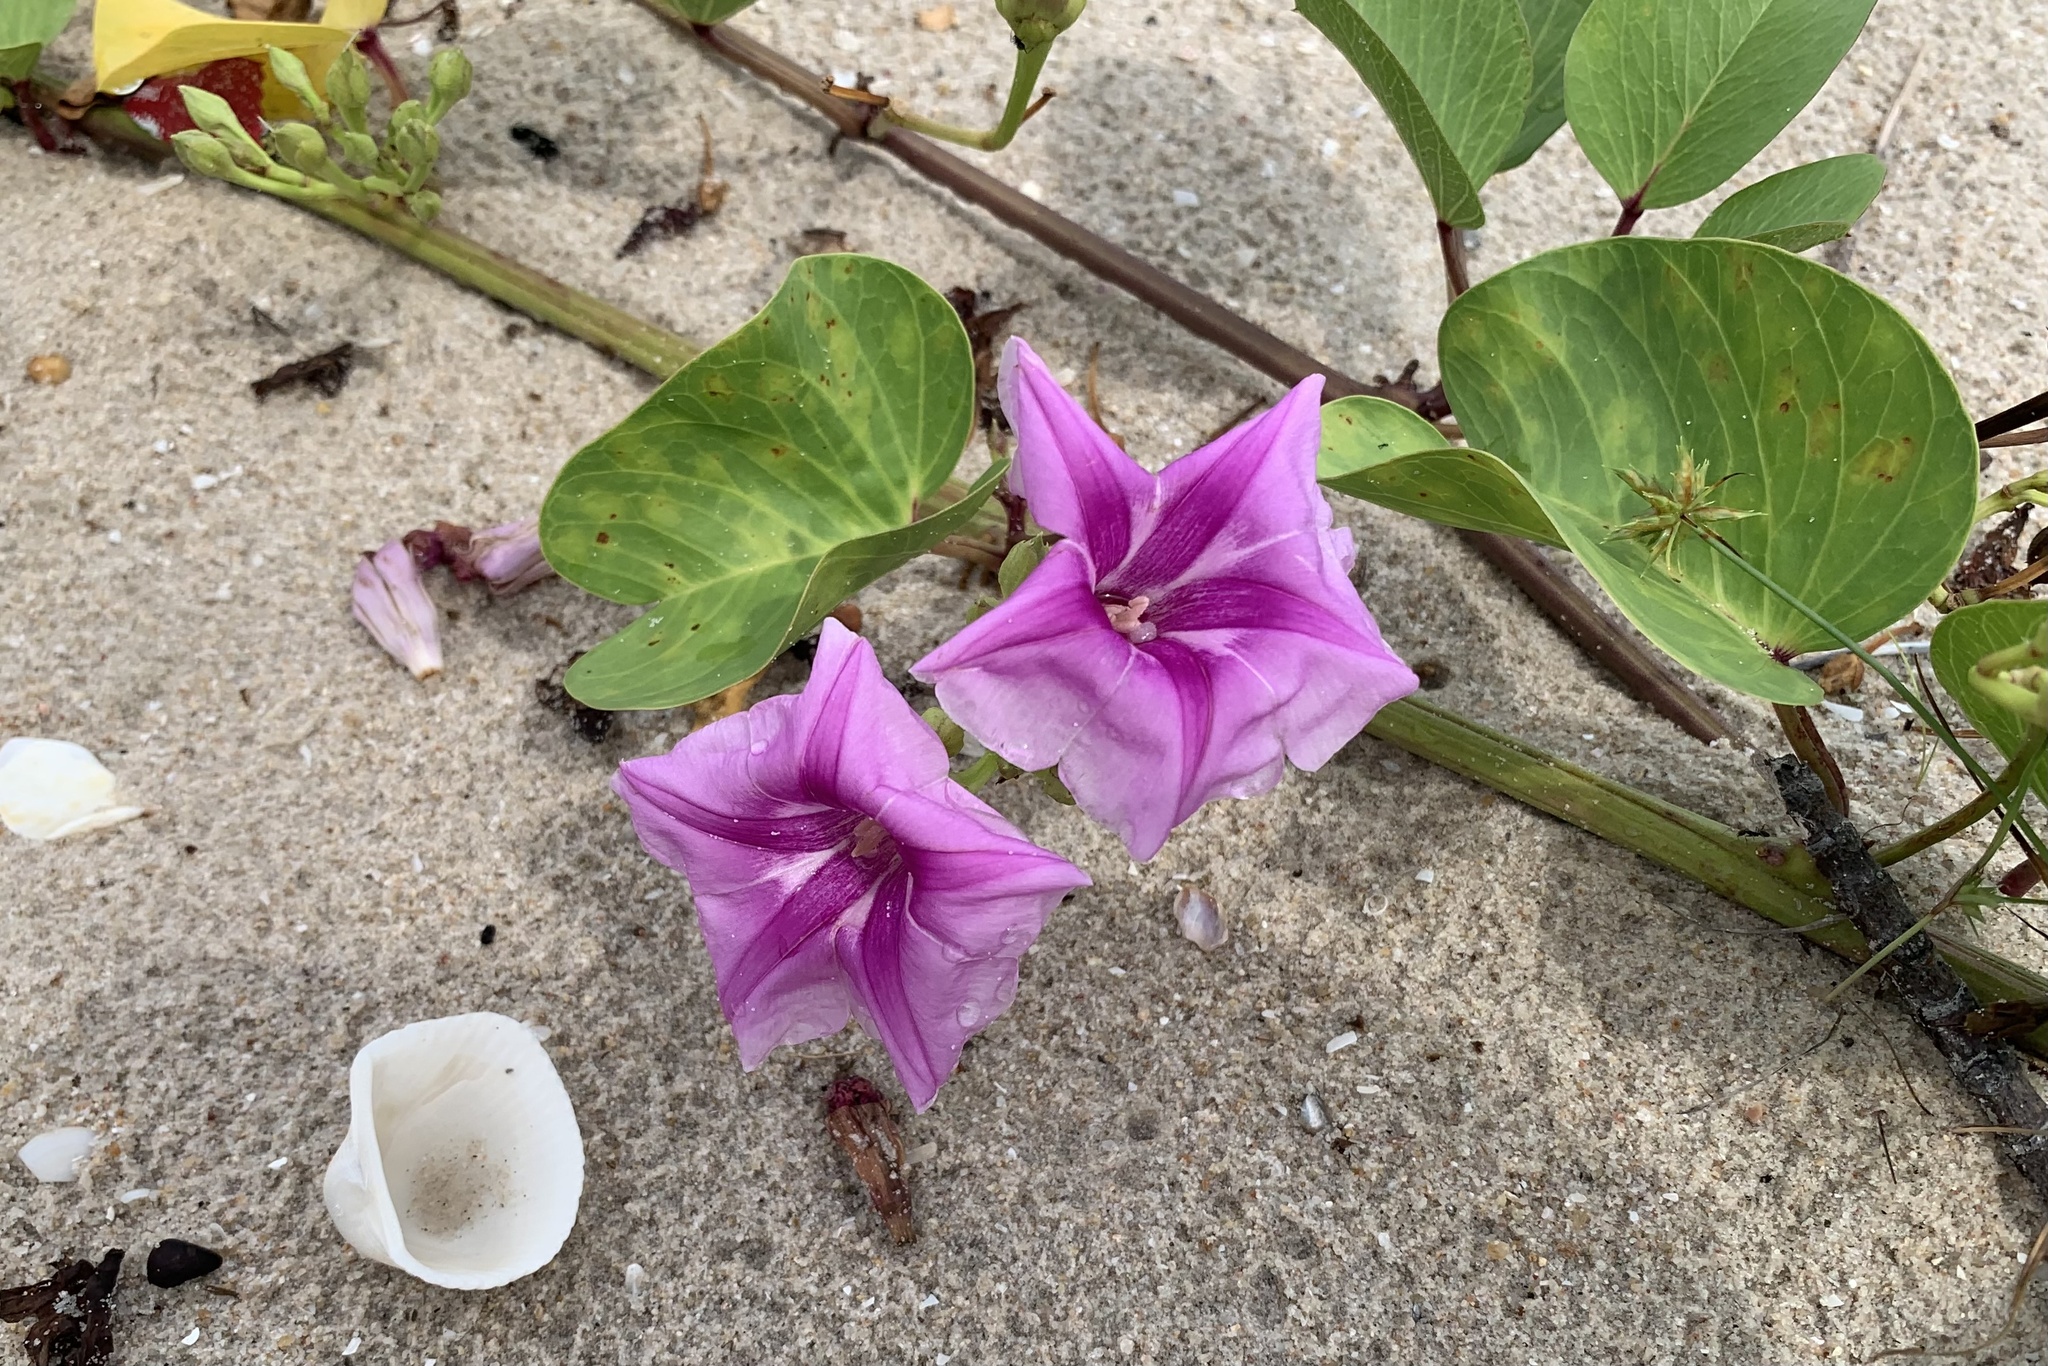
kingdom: Plantae
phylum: Tracheophyta
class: Magnoliopsida
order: Solanales
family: Convolvulaceae
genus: Ipomoea
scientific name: Ipomoea pes-caprae
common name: Beach morning glory
